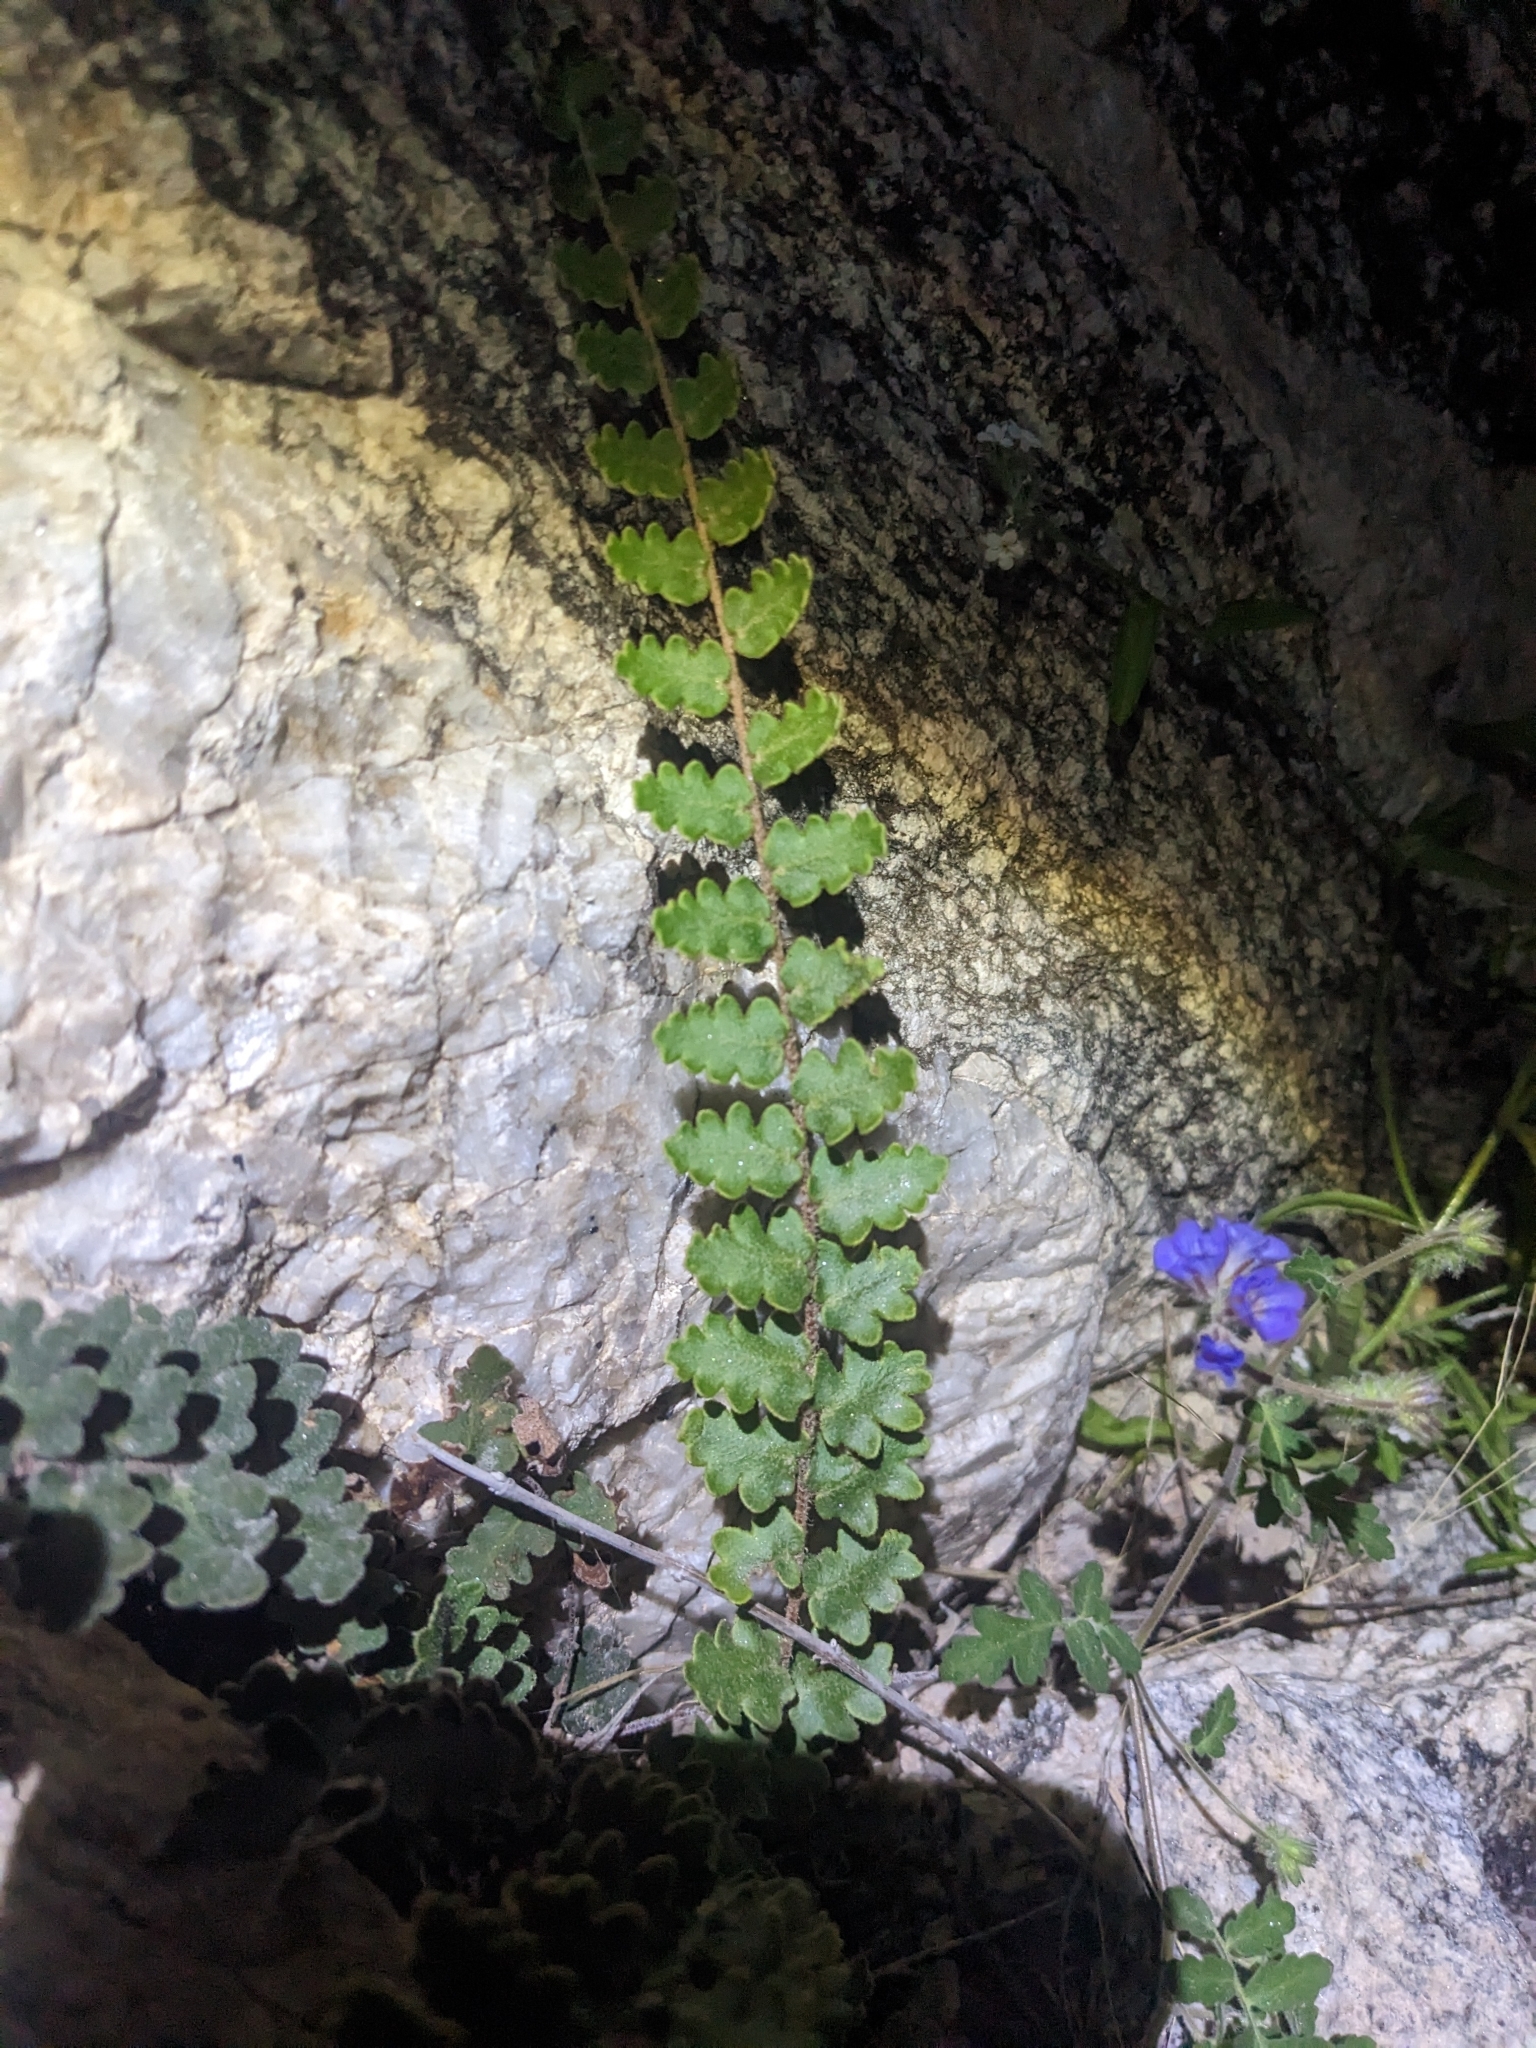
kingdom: Plantae
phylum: Tracheophyta
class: Polypodiopsida
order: Polypodiales
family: Pteridaceae
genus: Astrolepis
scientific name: Astrolepis sinuata
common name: Wavy scaly cloakfern
